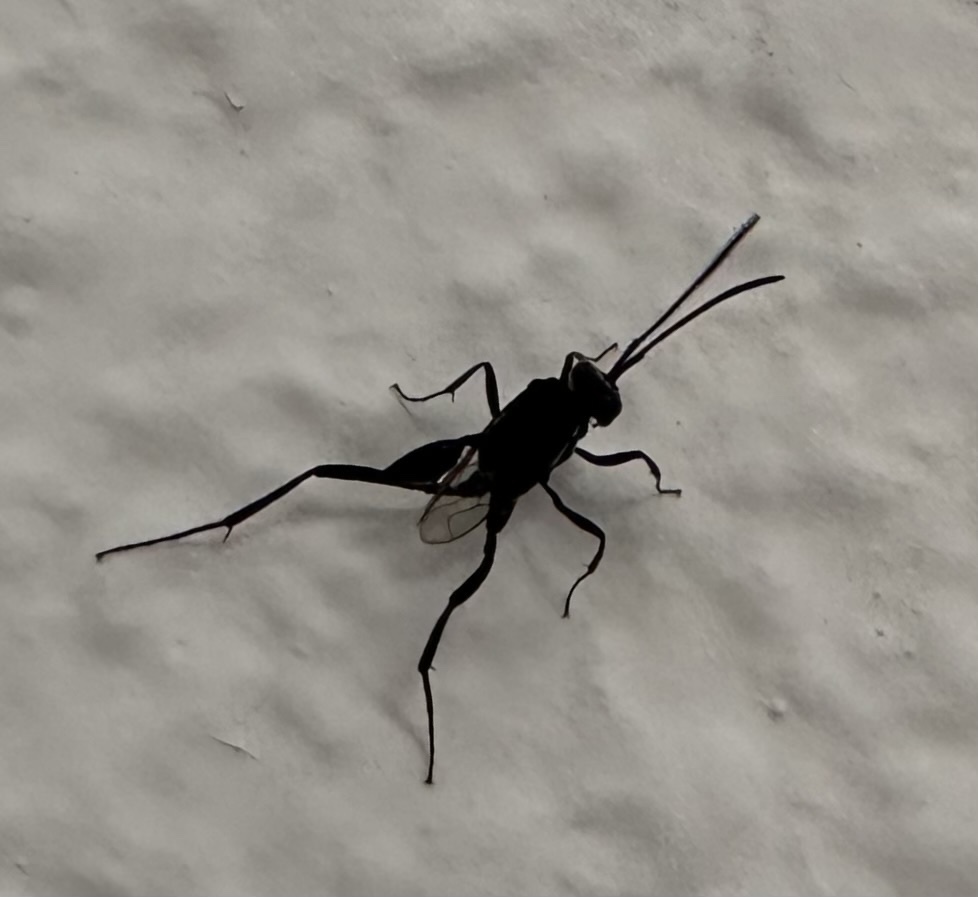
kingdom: Animalia
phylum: Arthropoda
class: Insecta
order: Hymenoptera
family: Evaniidae
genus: Evania
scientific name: Evania appendigaster
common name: Ensign wasp
